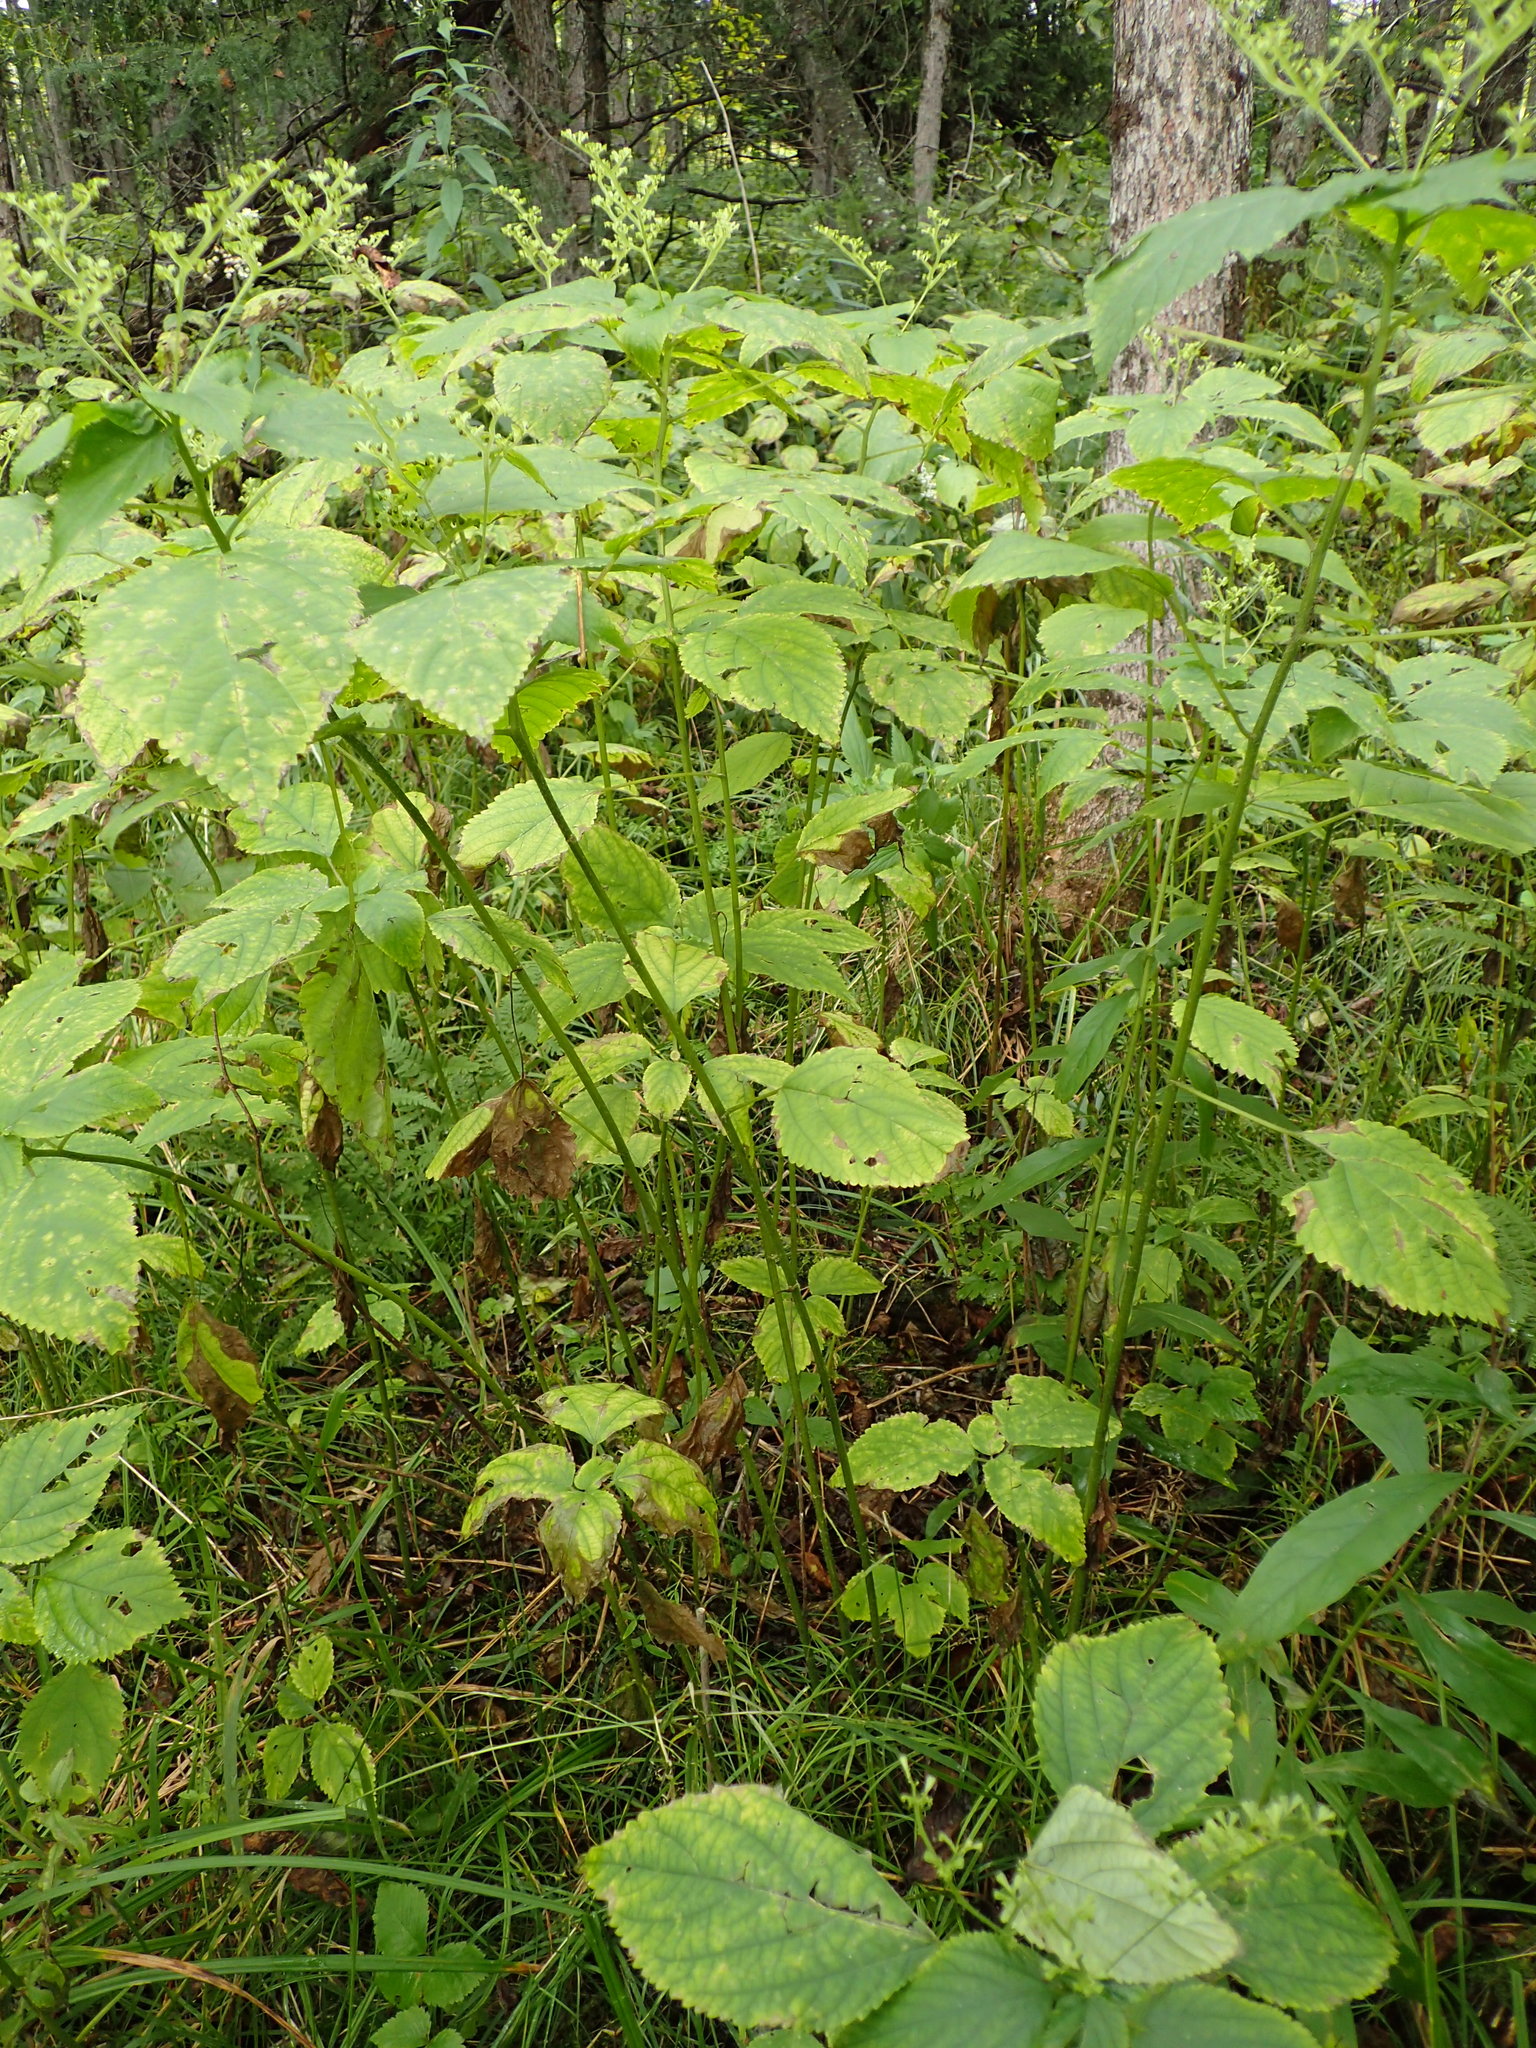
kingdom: Plantae
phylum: Tracheophyta
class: Magnoliopsida
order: Rosales
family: Urticaceae
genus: Laportea
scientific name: Laportea canadensis
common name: Canada nettle
